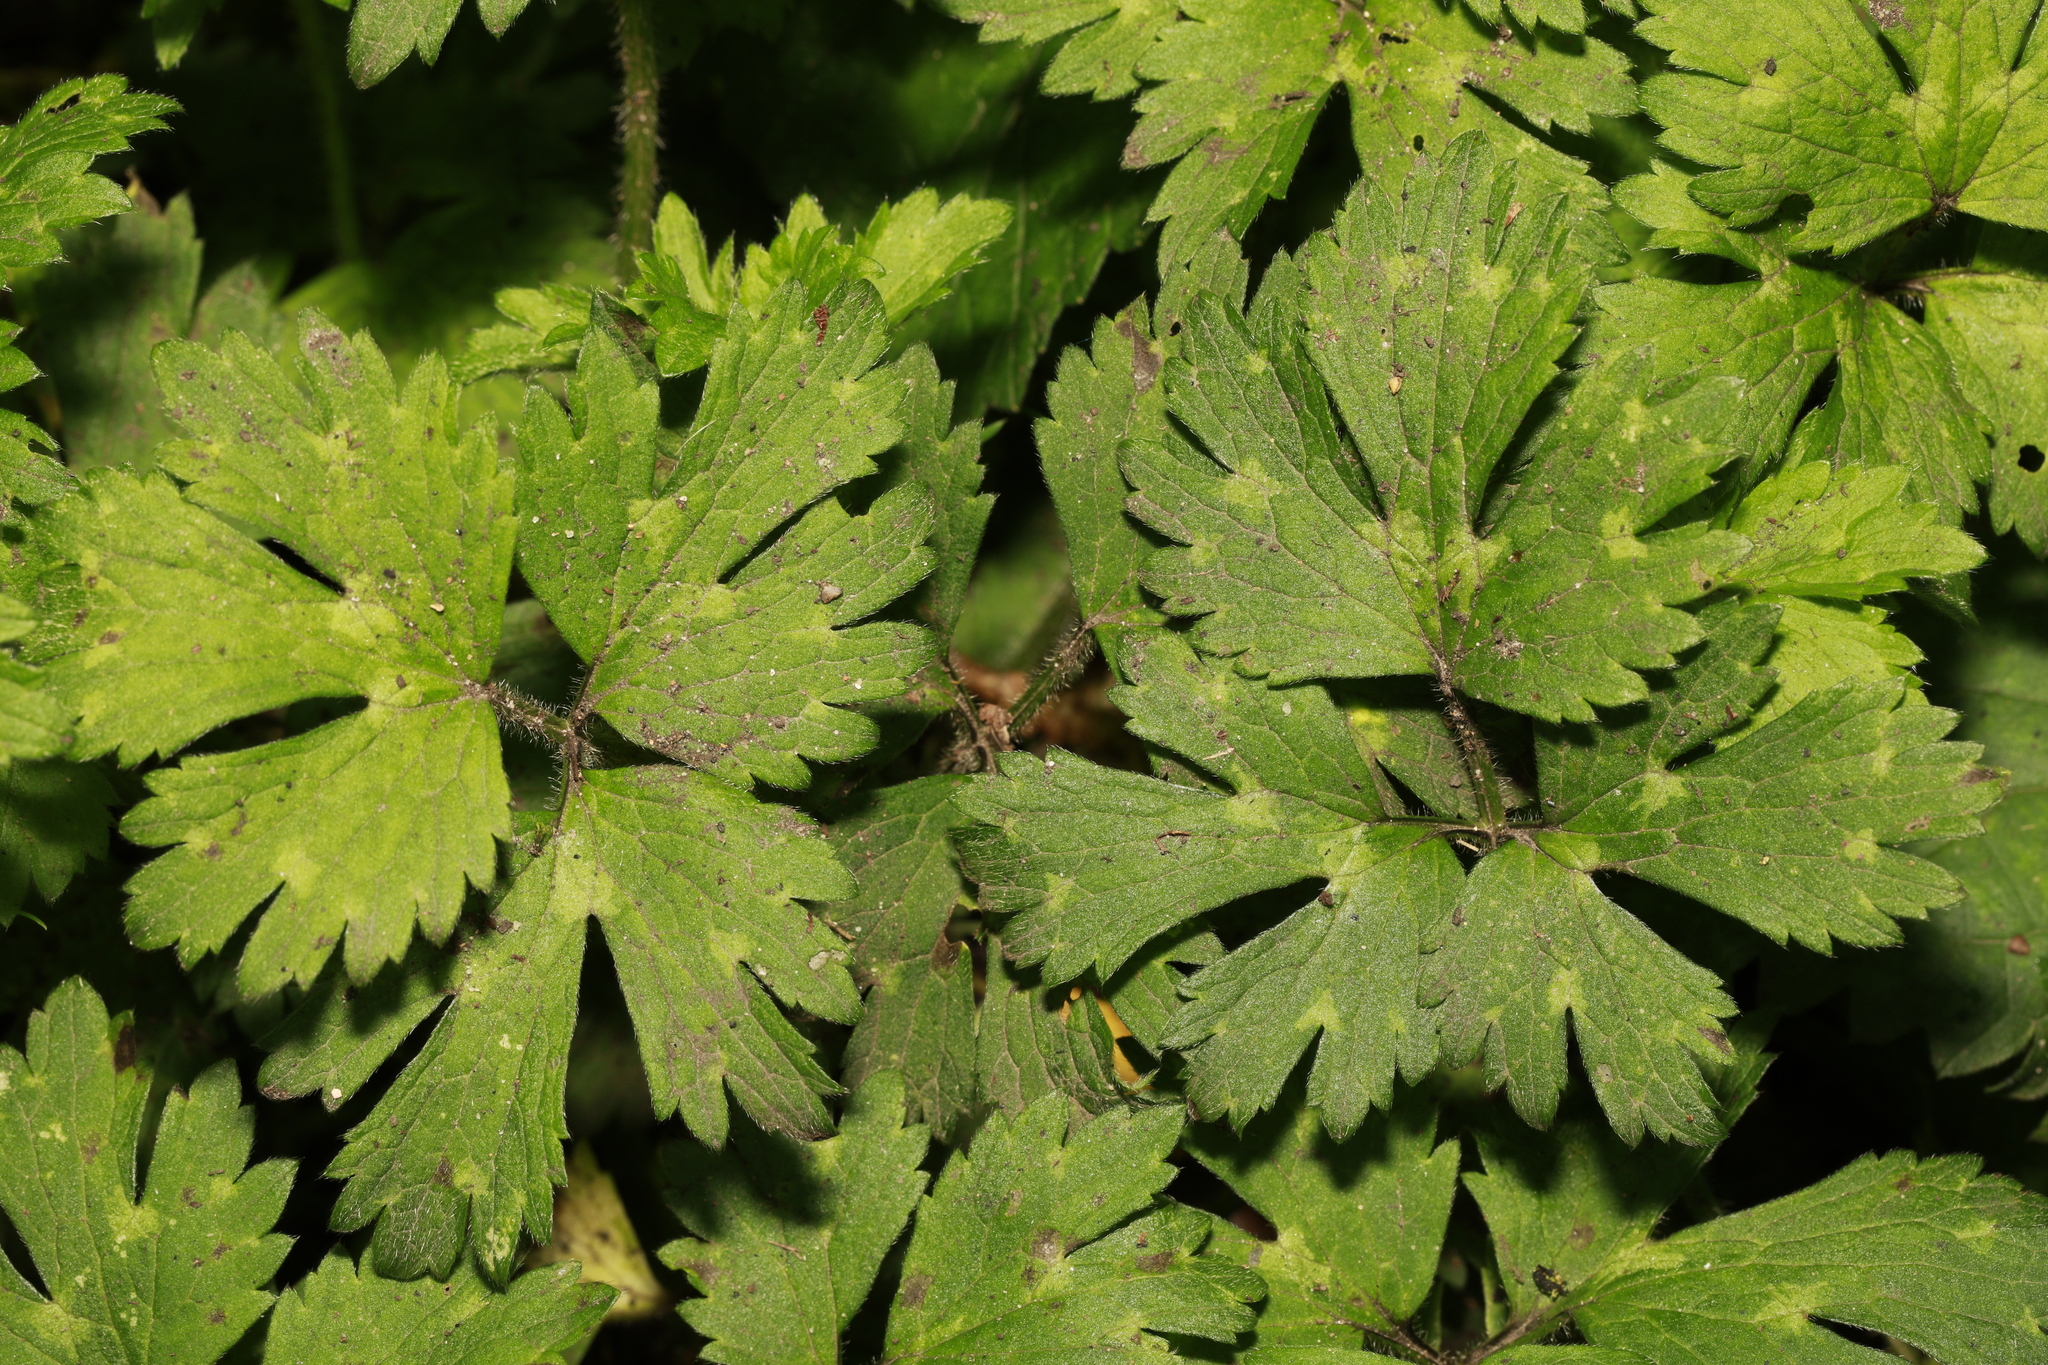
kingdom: Plantae
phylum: Tracheophyta
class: Magnoliopsida
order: Ranunculales
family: Ranunculaceae
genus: Ranunculus
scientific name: Ranunculus repens
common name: Creeping buttercup
